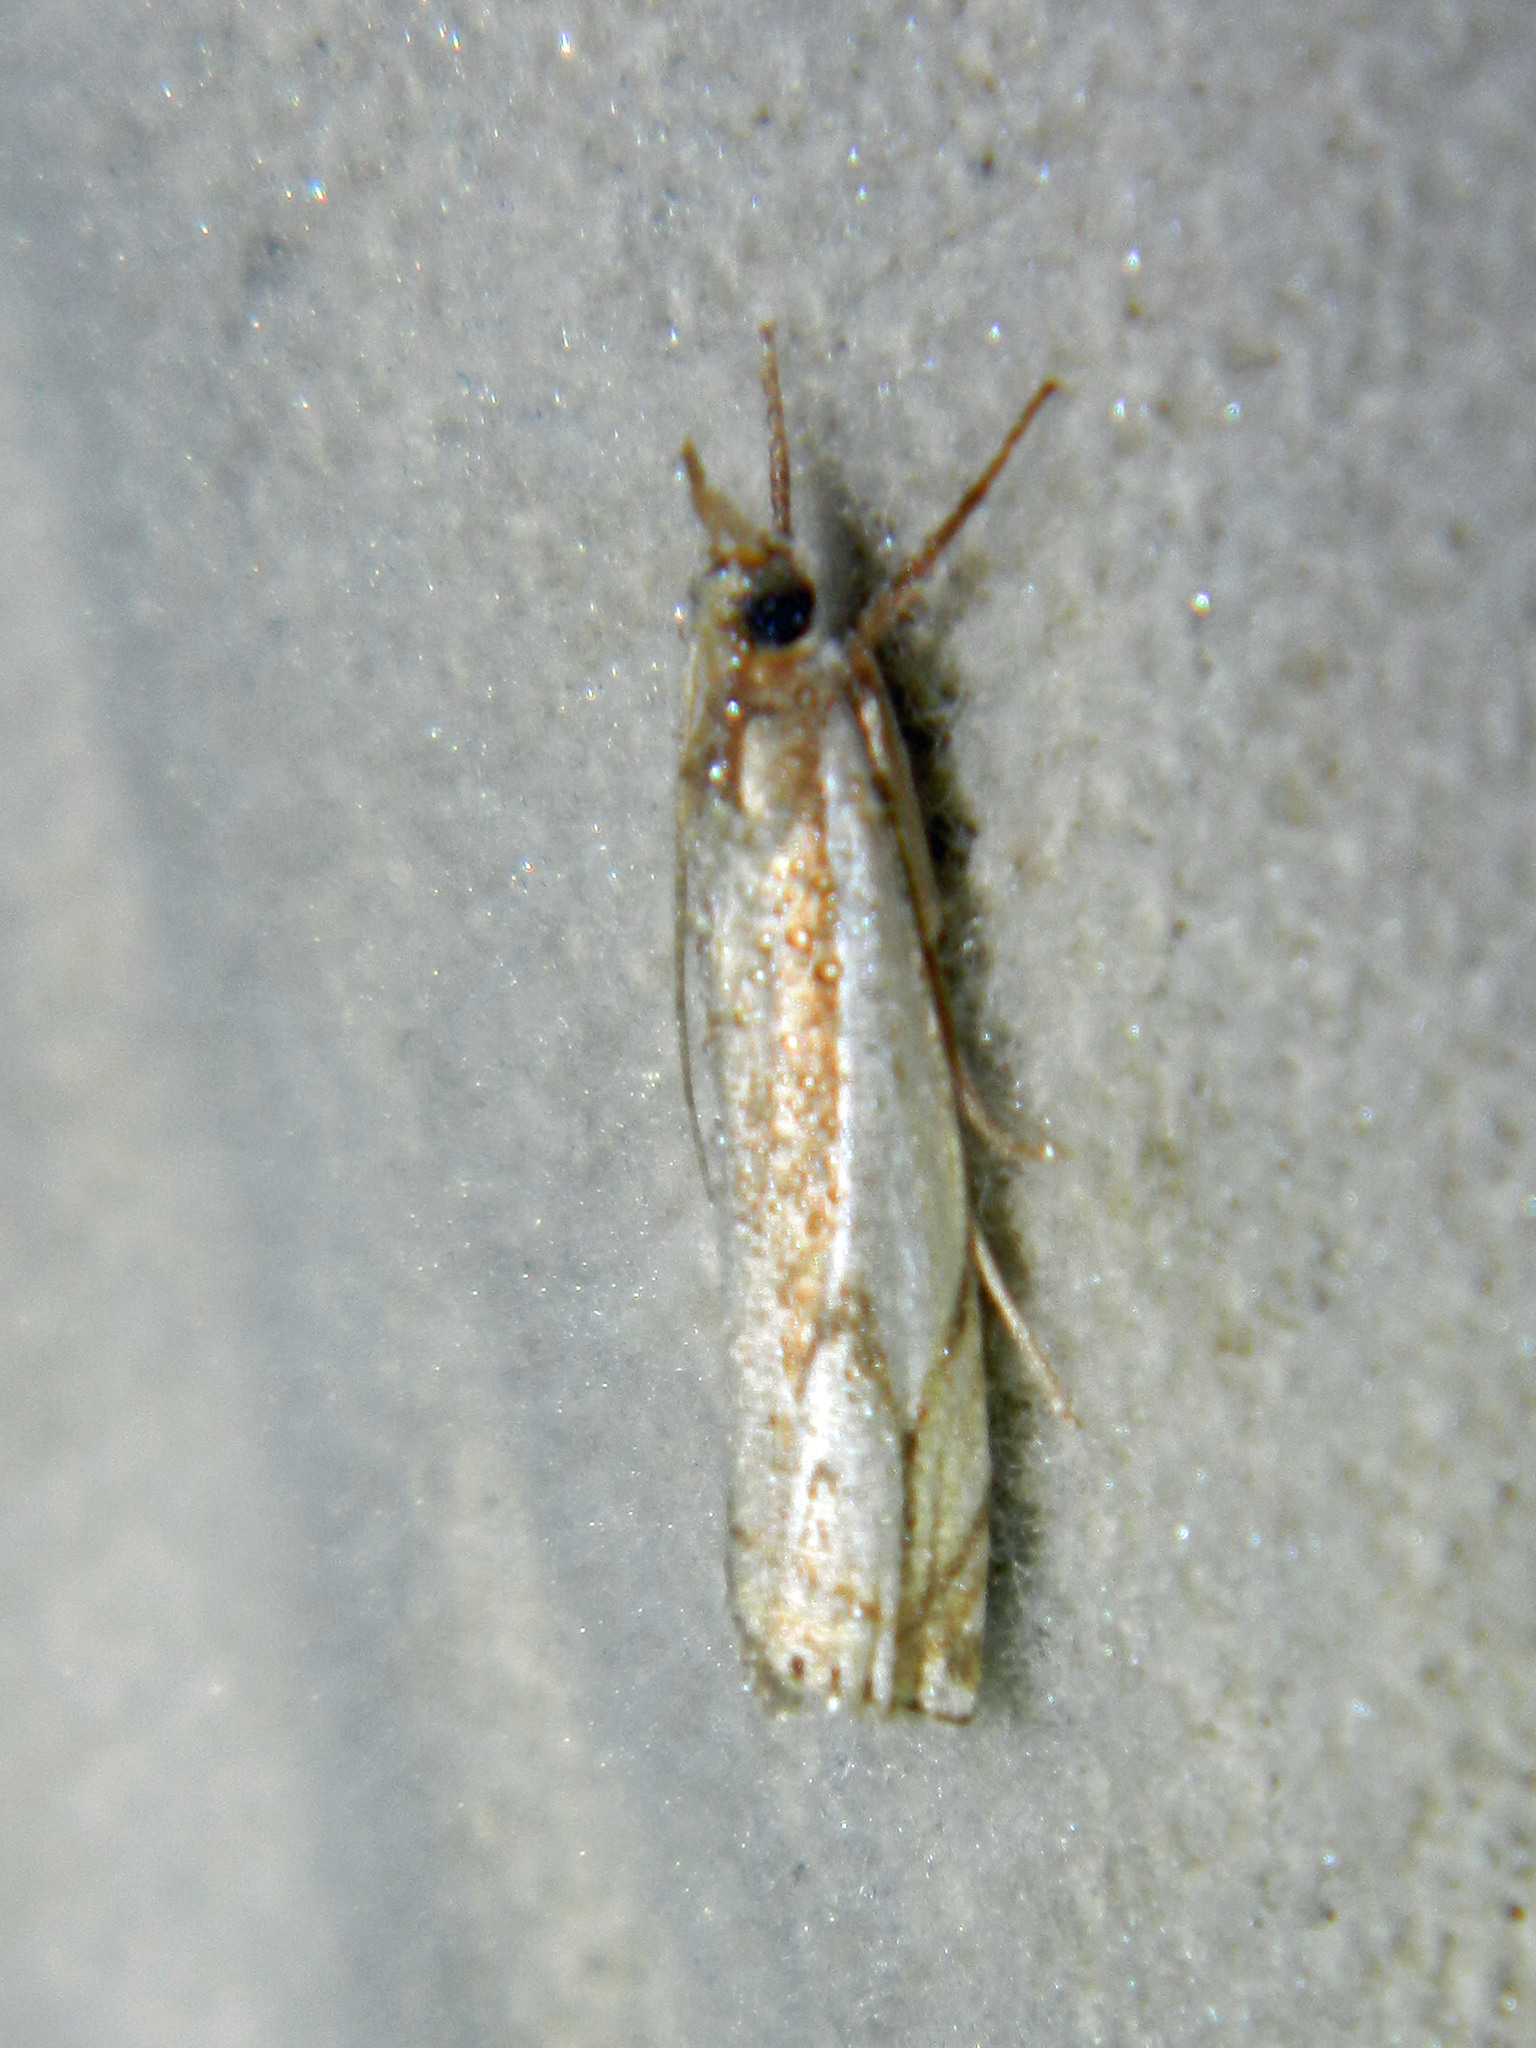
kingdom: Animalia
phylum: Arthropoda
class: Insecta
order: Lepidoptera
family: Crambidae
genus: Crambus
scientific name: Crambus agitatellus
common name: Double-banded grass-veneer
